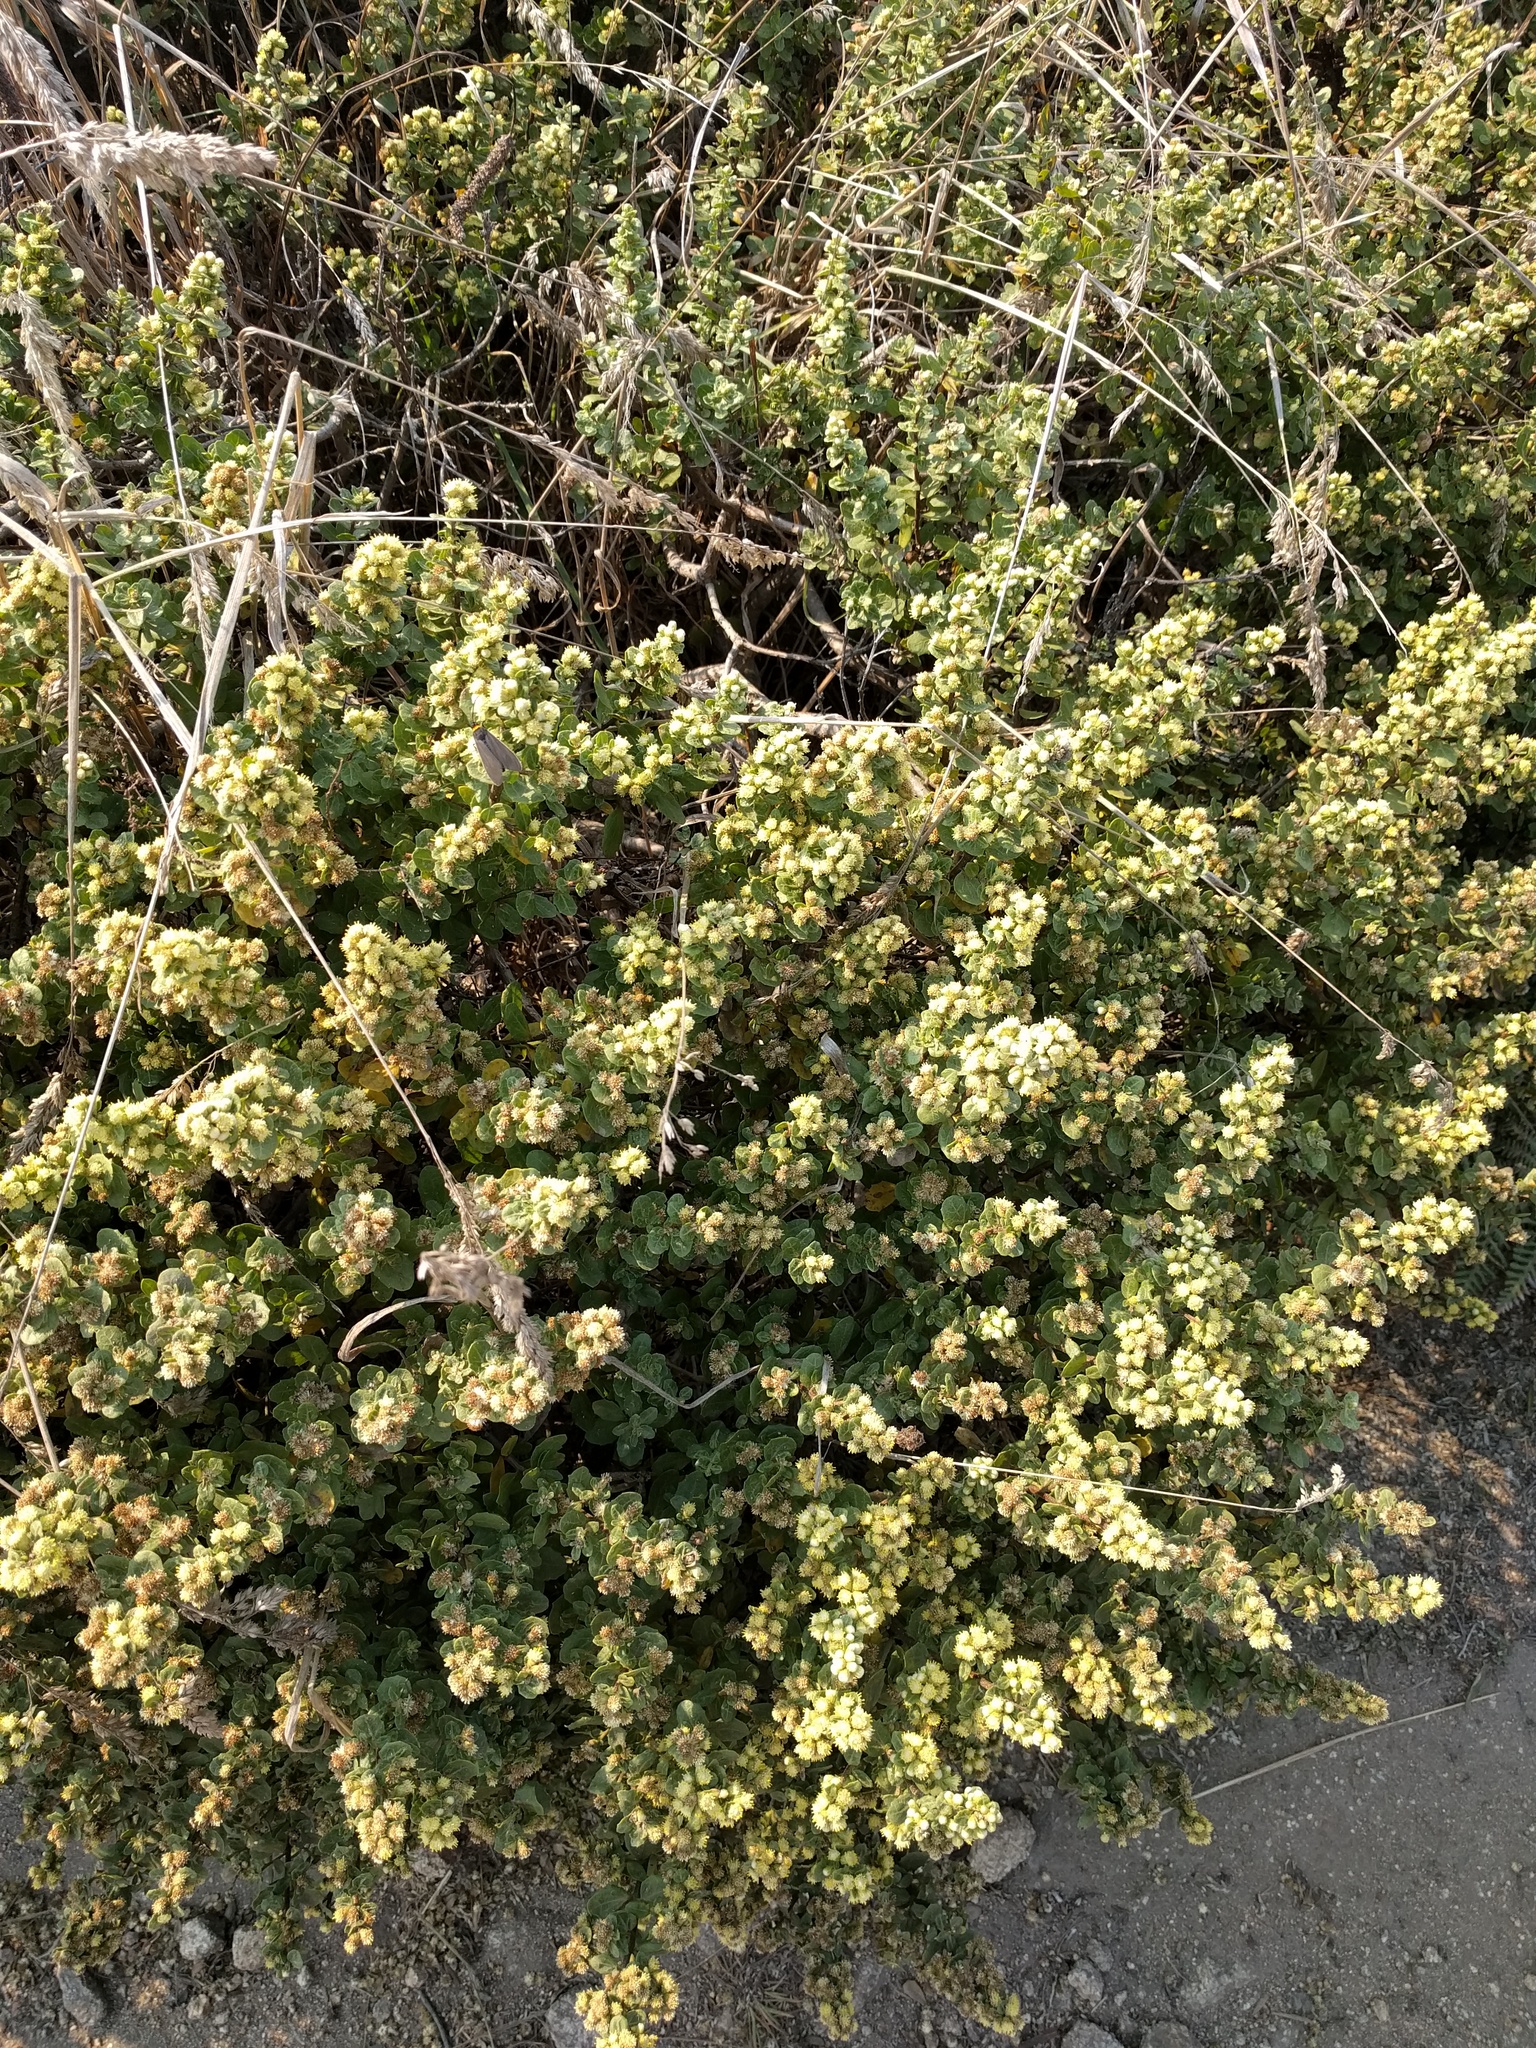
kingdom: Plantae
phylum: Tracheophyta
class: Magnoliopsida
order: Asterales
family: Asteraceae
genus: Baccharis
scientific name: Baccharis pilularis
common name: Coyotebrush
